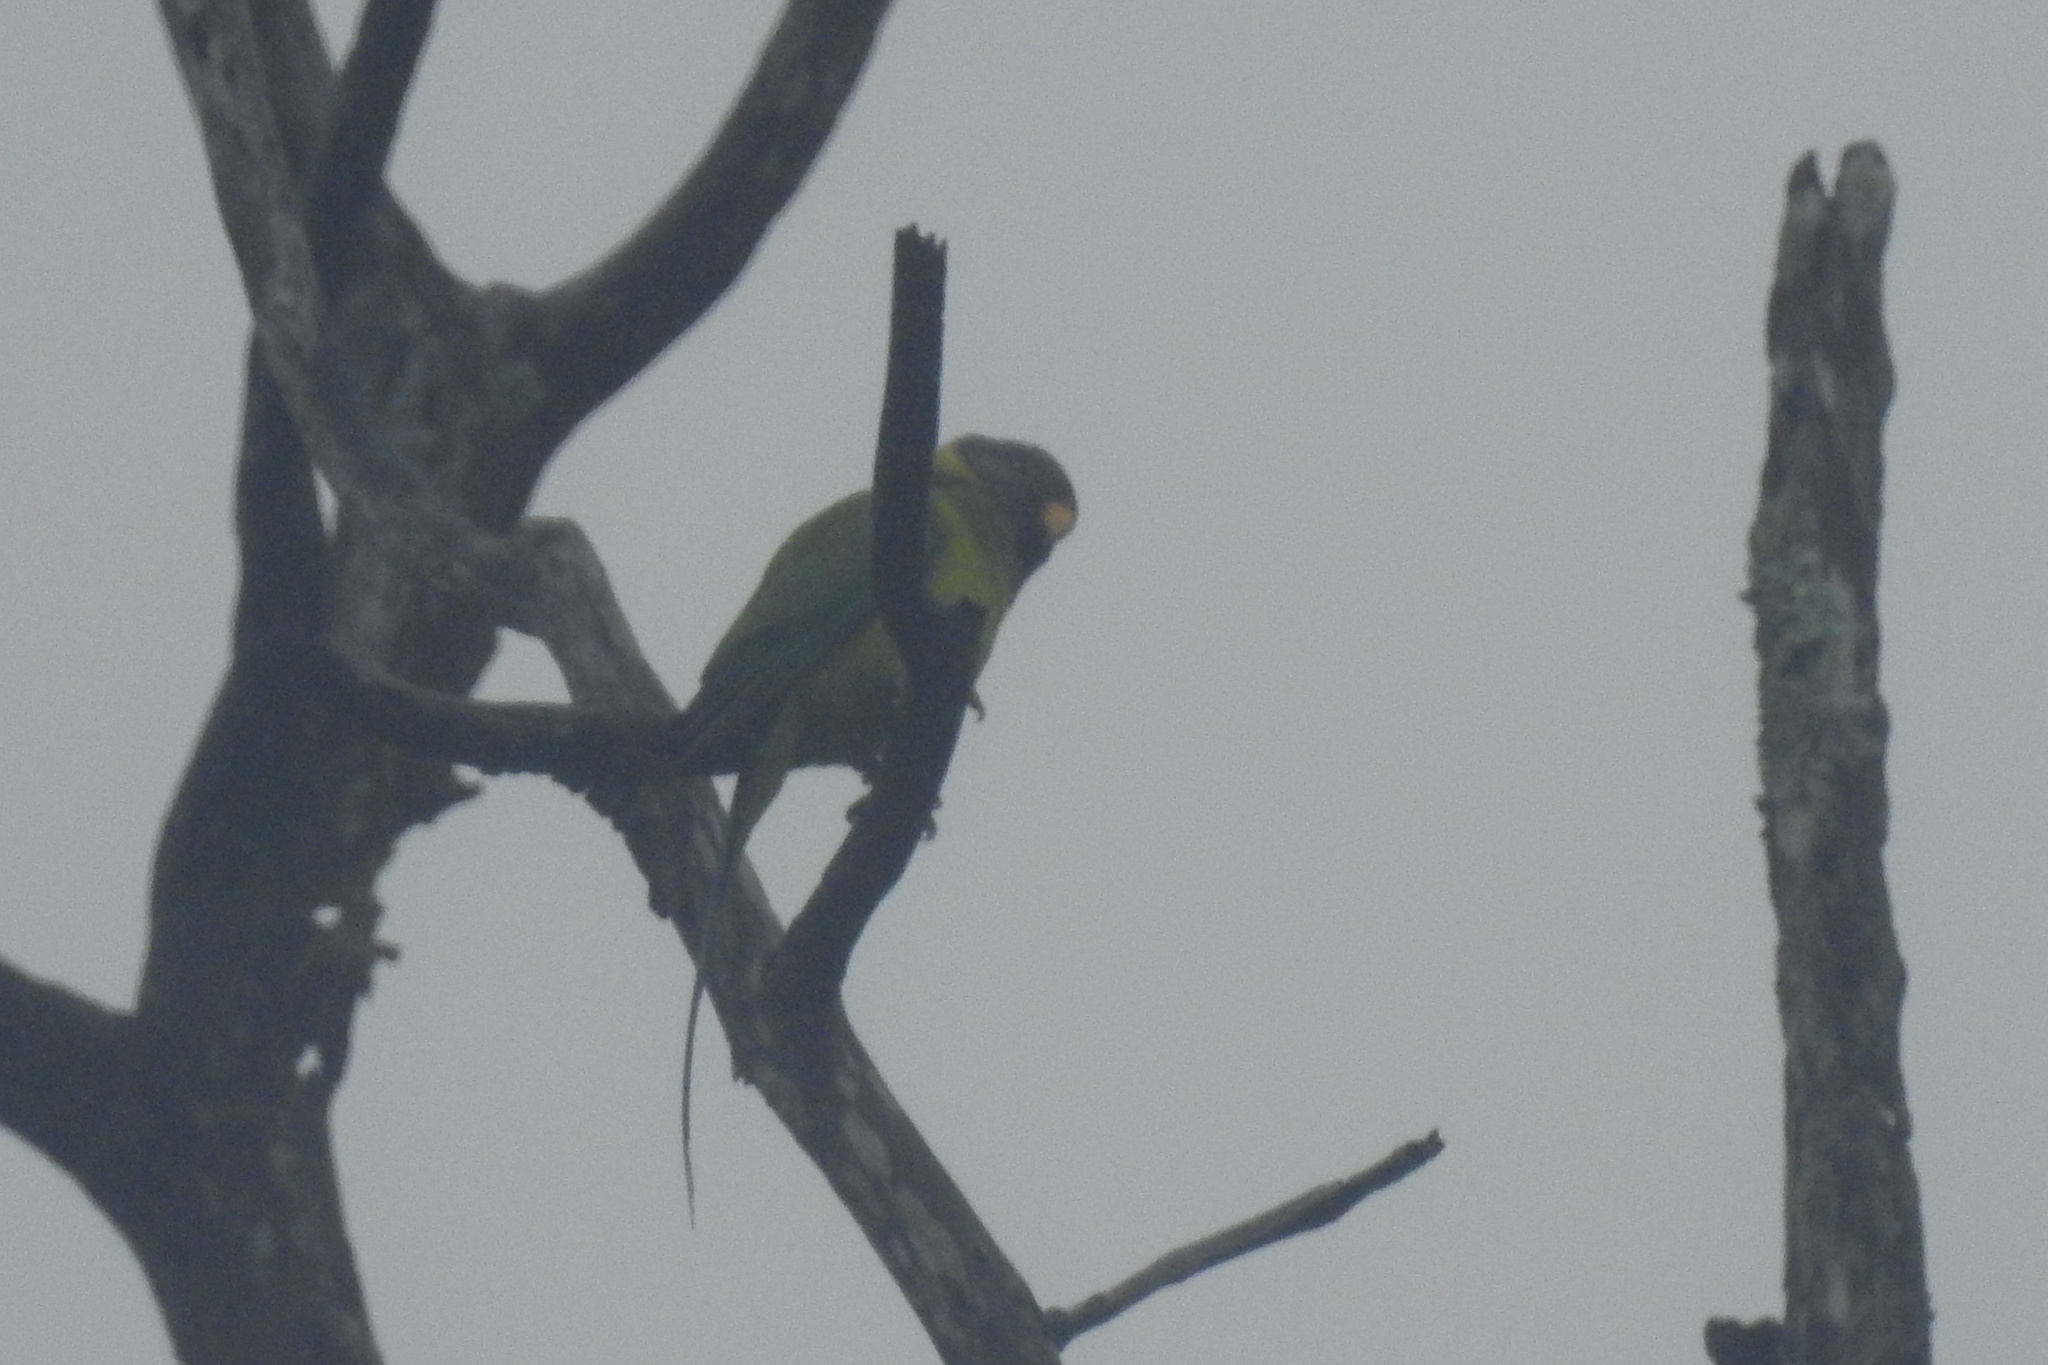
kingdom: Animalia
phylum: Chordata
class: Aves
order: Psittaciformes
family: Psittacidae
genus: Psittacula
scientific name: Psittacula cyanocephala
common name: Plum-headed parakeet
